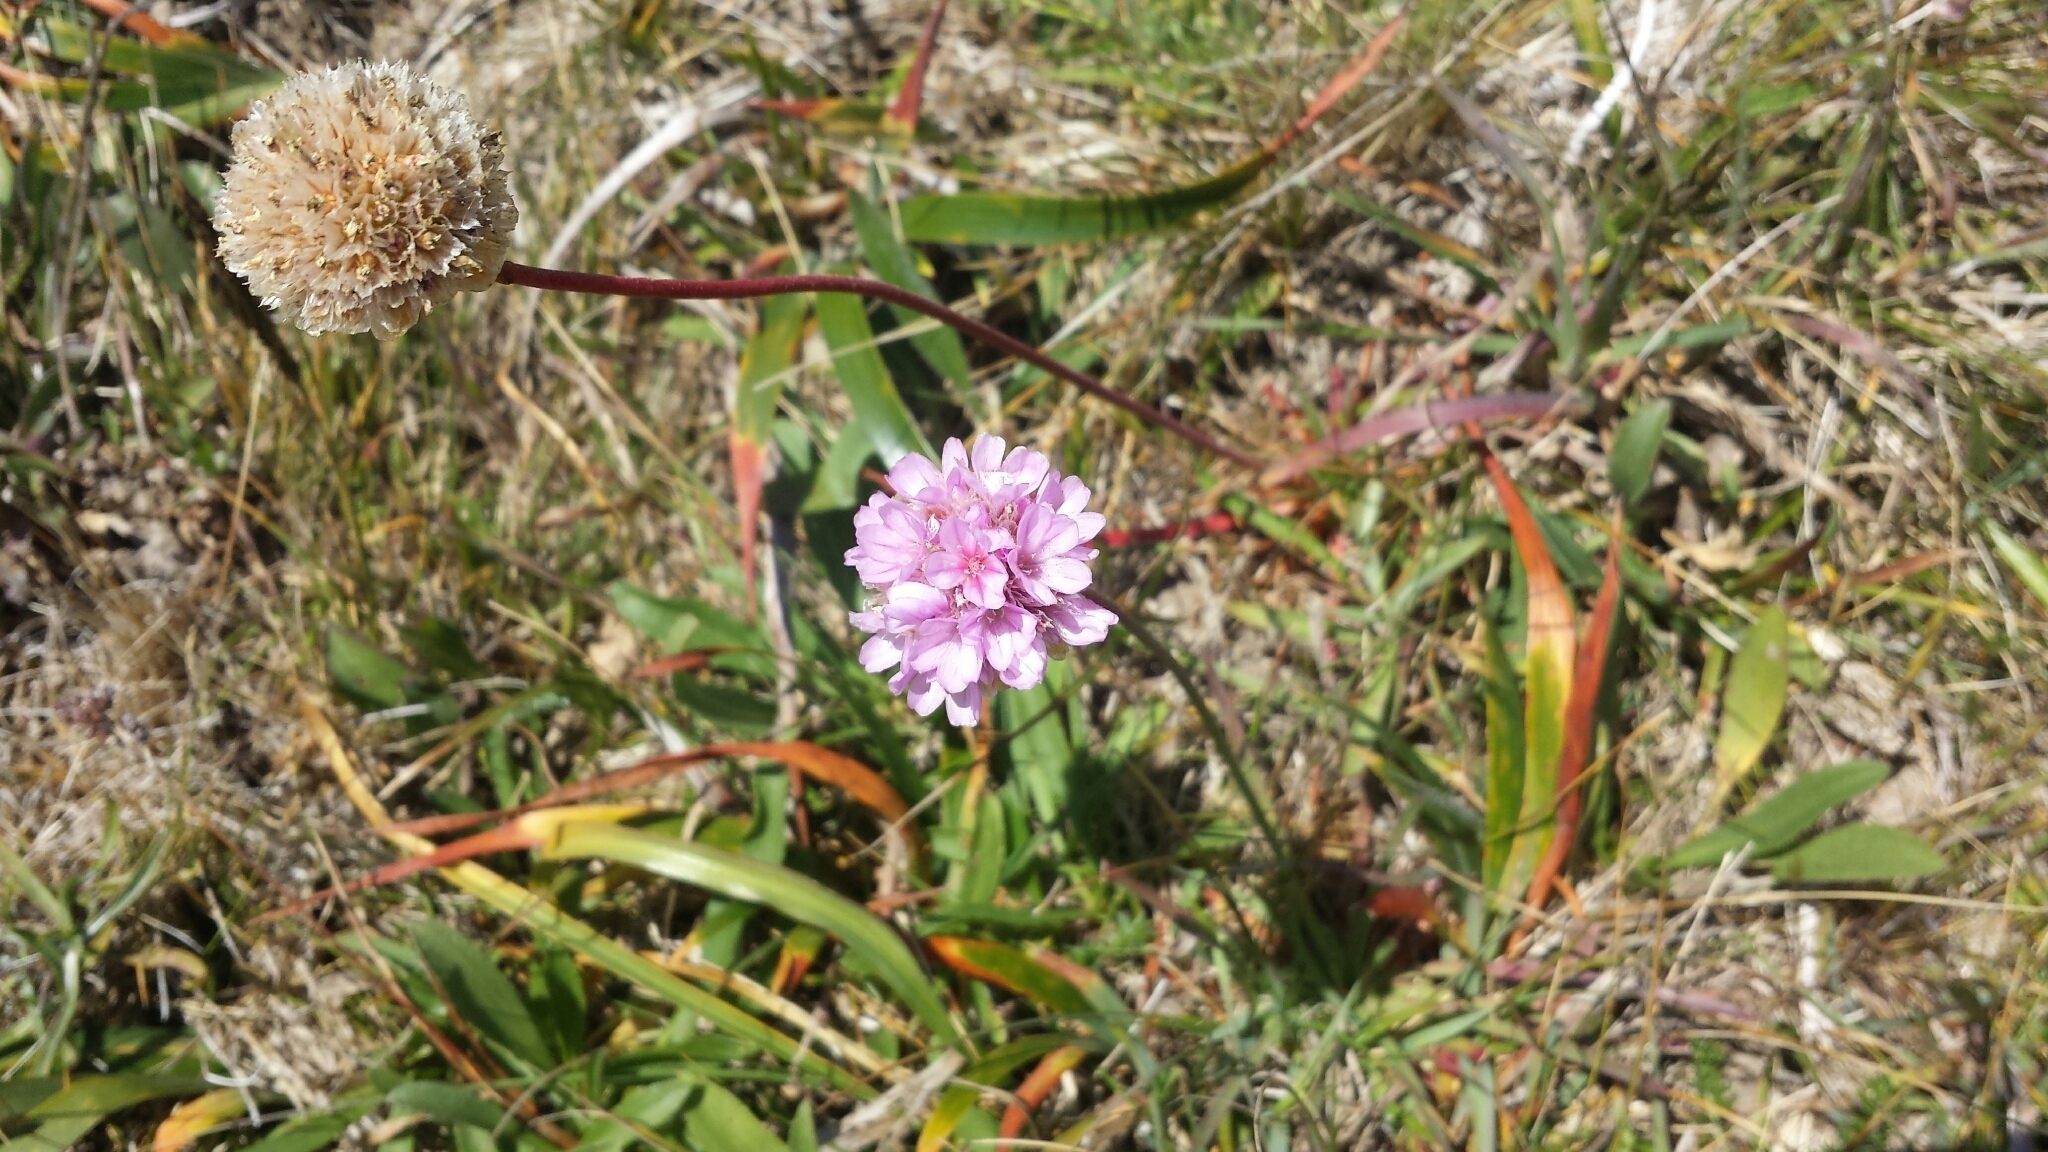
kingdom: Plantae
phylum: Tracheophyta
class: Magnoliopsida
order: Caryophyllales
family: Plumbaginaceae
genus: Armeria
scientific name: Armeria maritima
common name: Thrift
